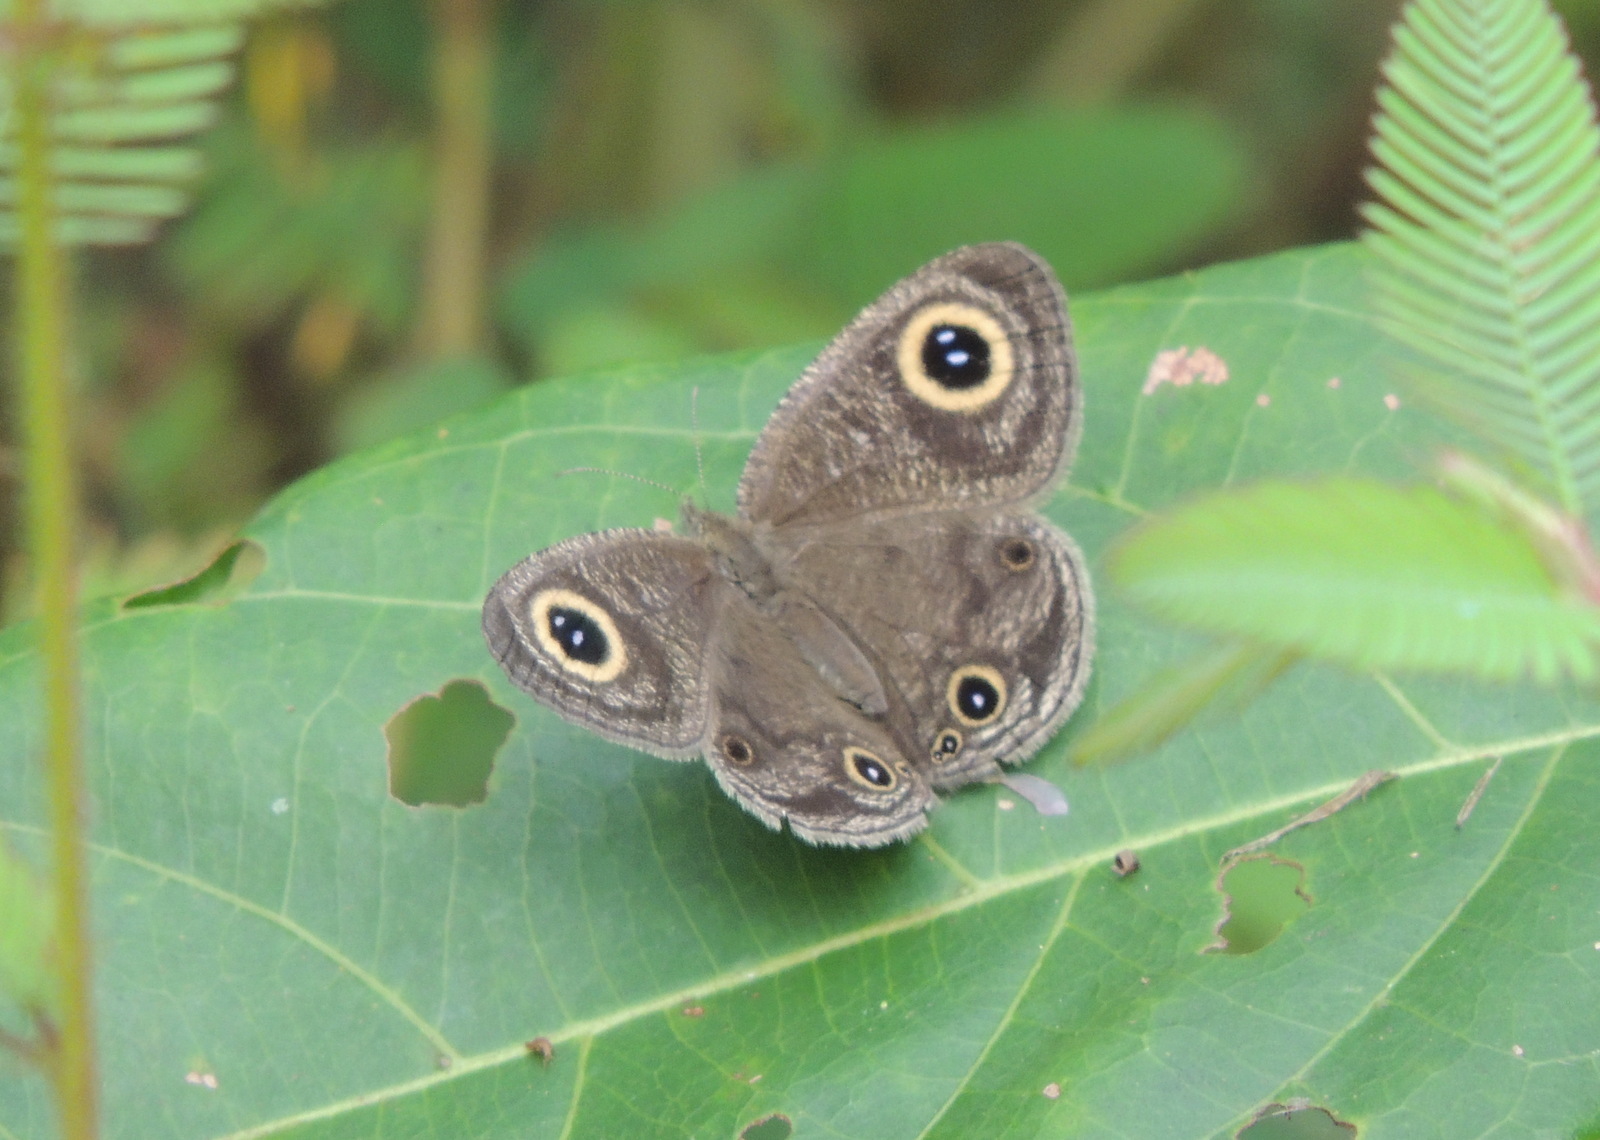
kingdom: Animalia
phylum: Arthropoda
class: Insecta
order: Lepidoptera
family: Nymphalidae
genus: Ypthima
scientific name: Ypthima doleta
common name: Common ringlet
